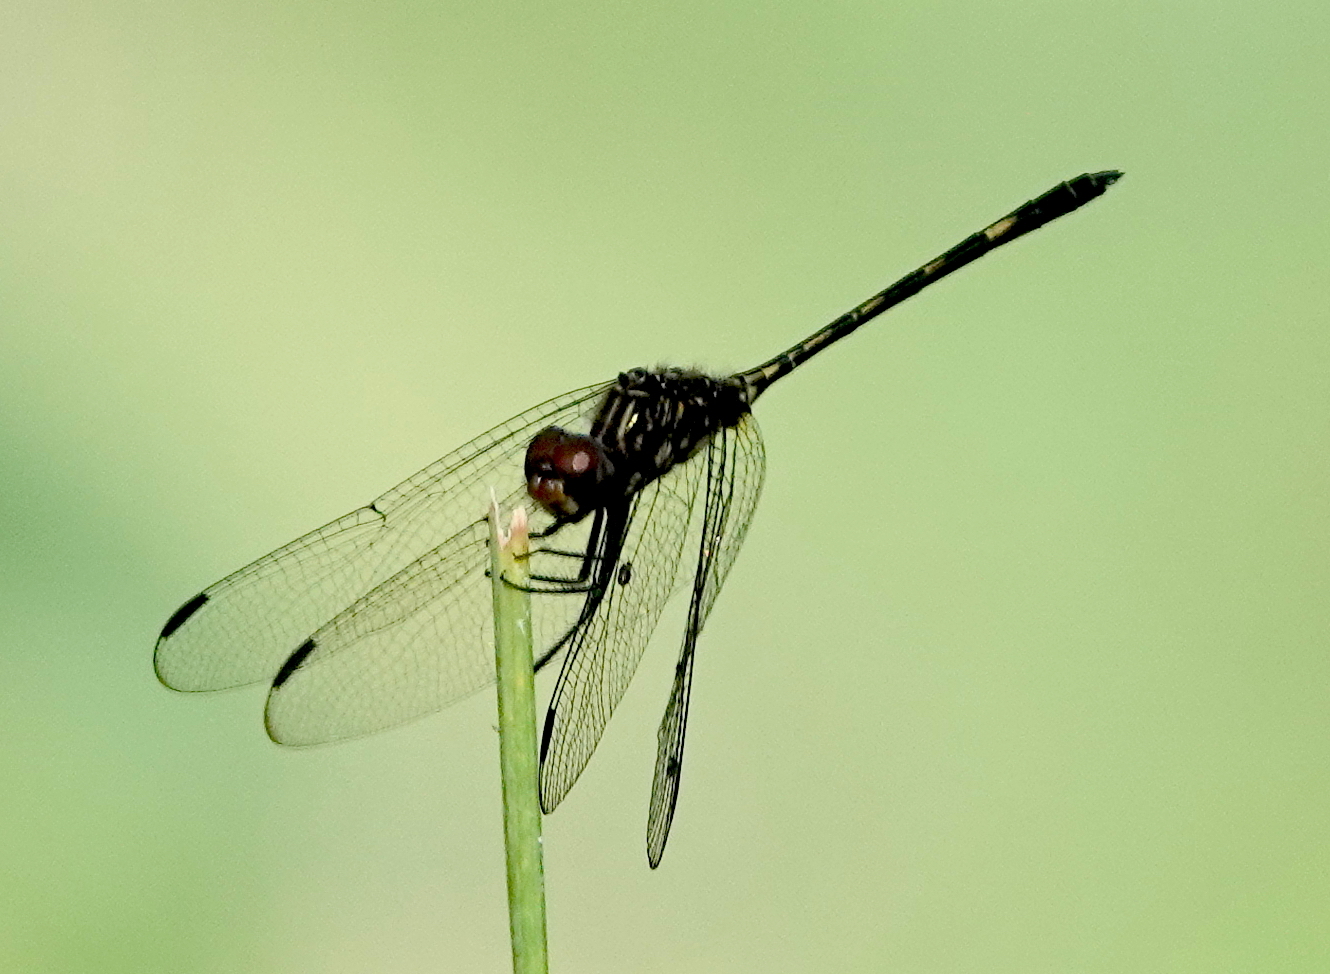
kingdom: Animalia
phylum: Arthropoda
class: Insecta
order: Odonata
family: Libellulidae
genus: Dythemis
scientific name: Dythemis sterilis
